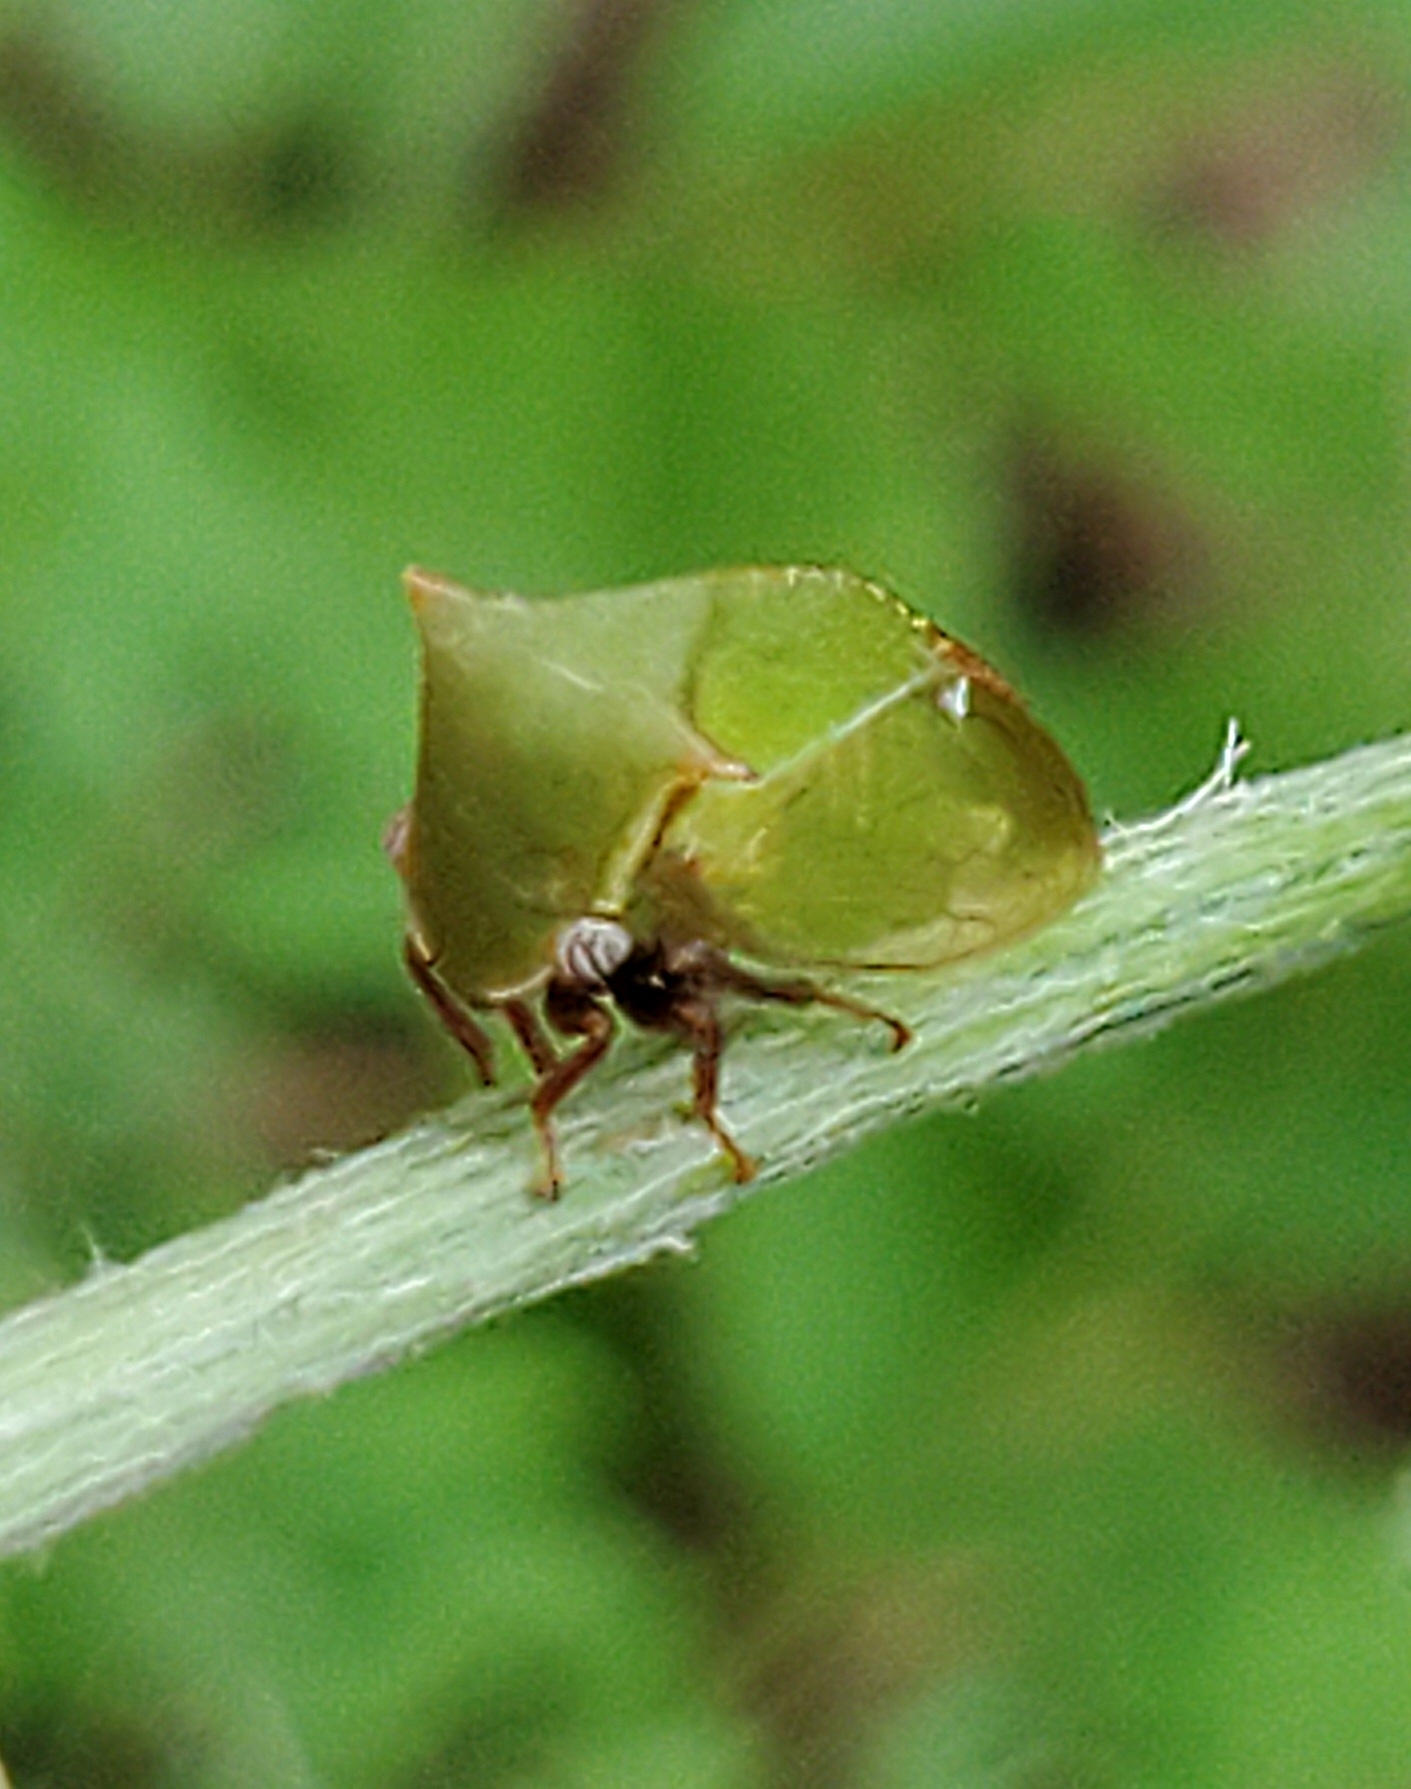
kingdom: Animalia
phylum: Arthropoda
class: Insecta
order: Hemiptera
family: Membracidae
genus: Stictocephala
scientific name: Stictocephala brevitylus
